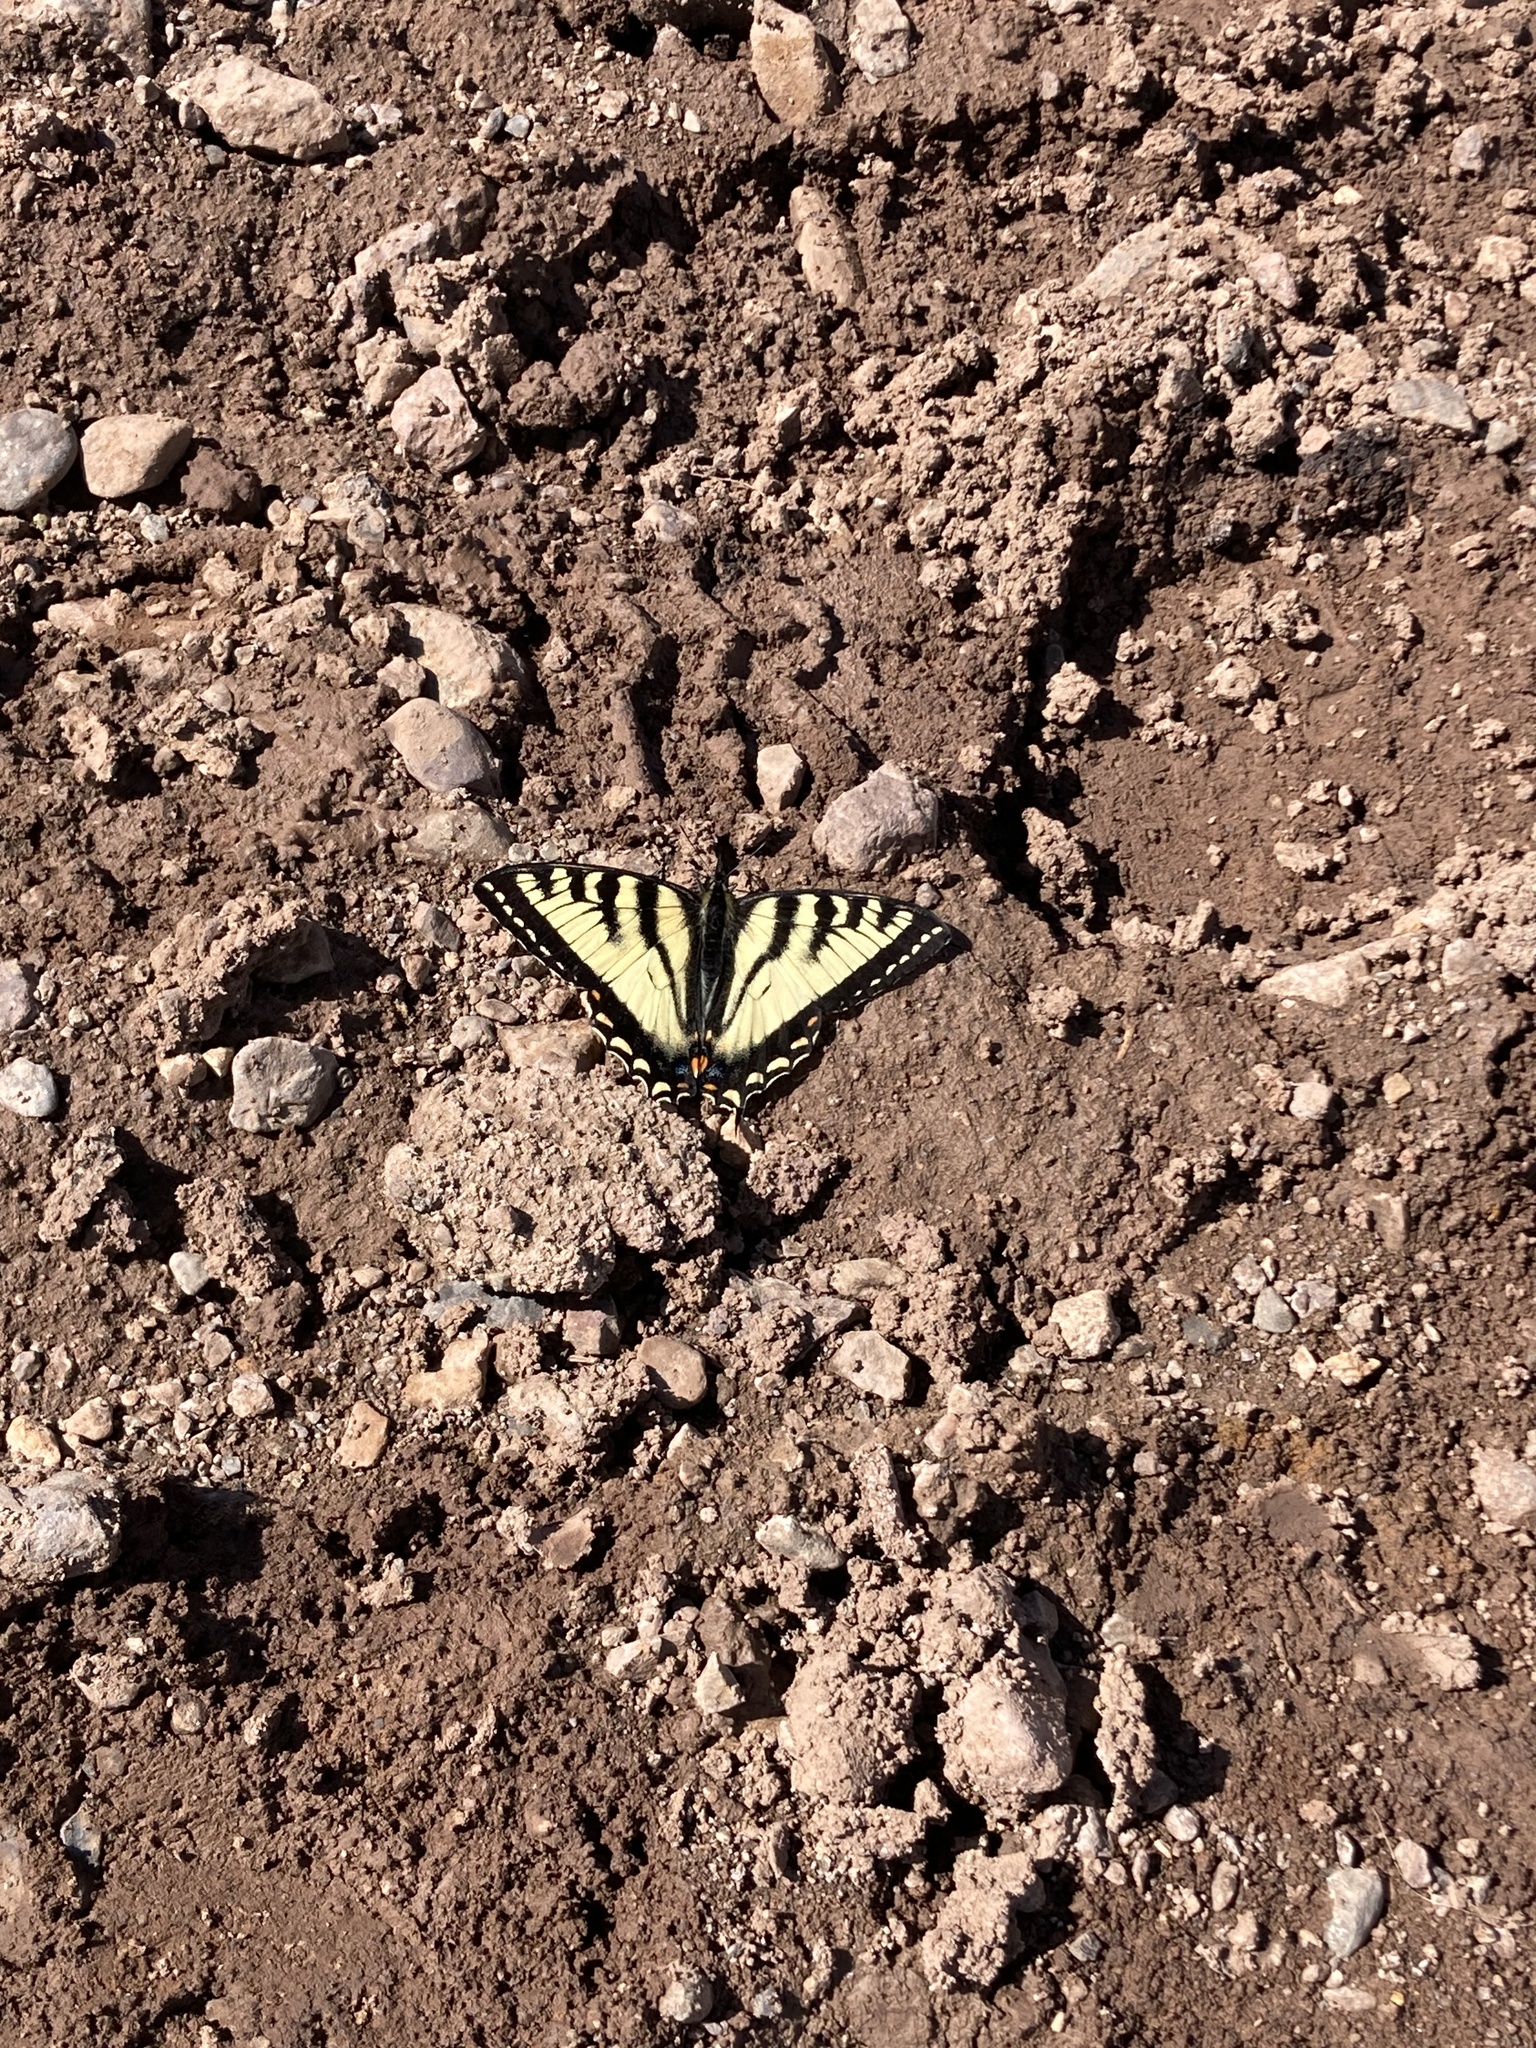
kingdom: Animalia
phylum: Arthropoda
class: Insecta
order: Lepidoptera
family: Papilionidae
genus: Papilio
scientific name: Papilio canadensis
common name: Canadian tiger swallowtail
